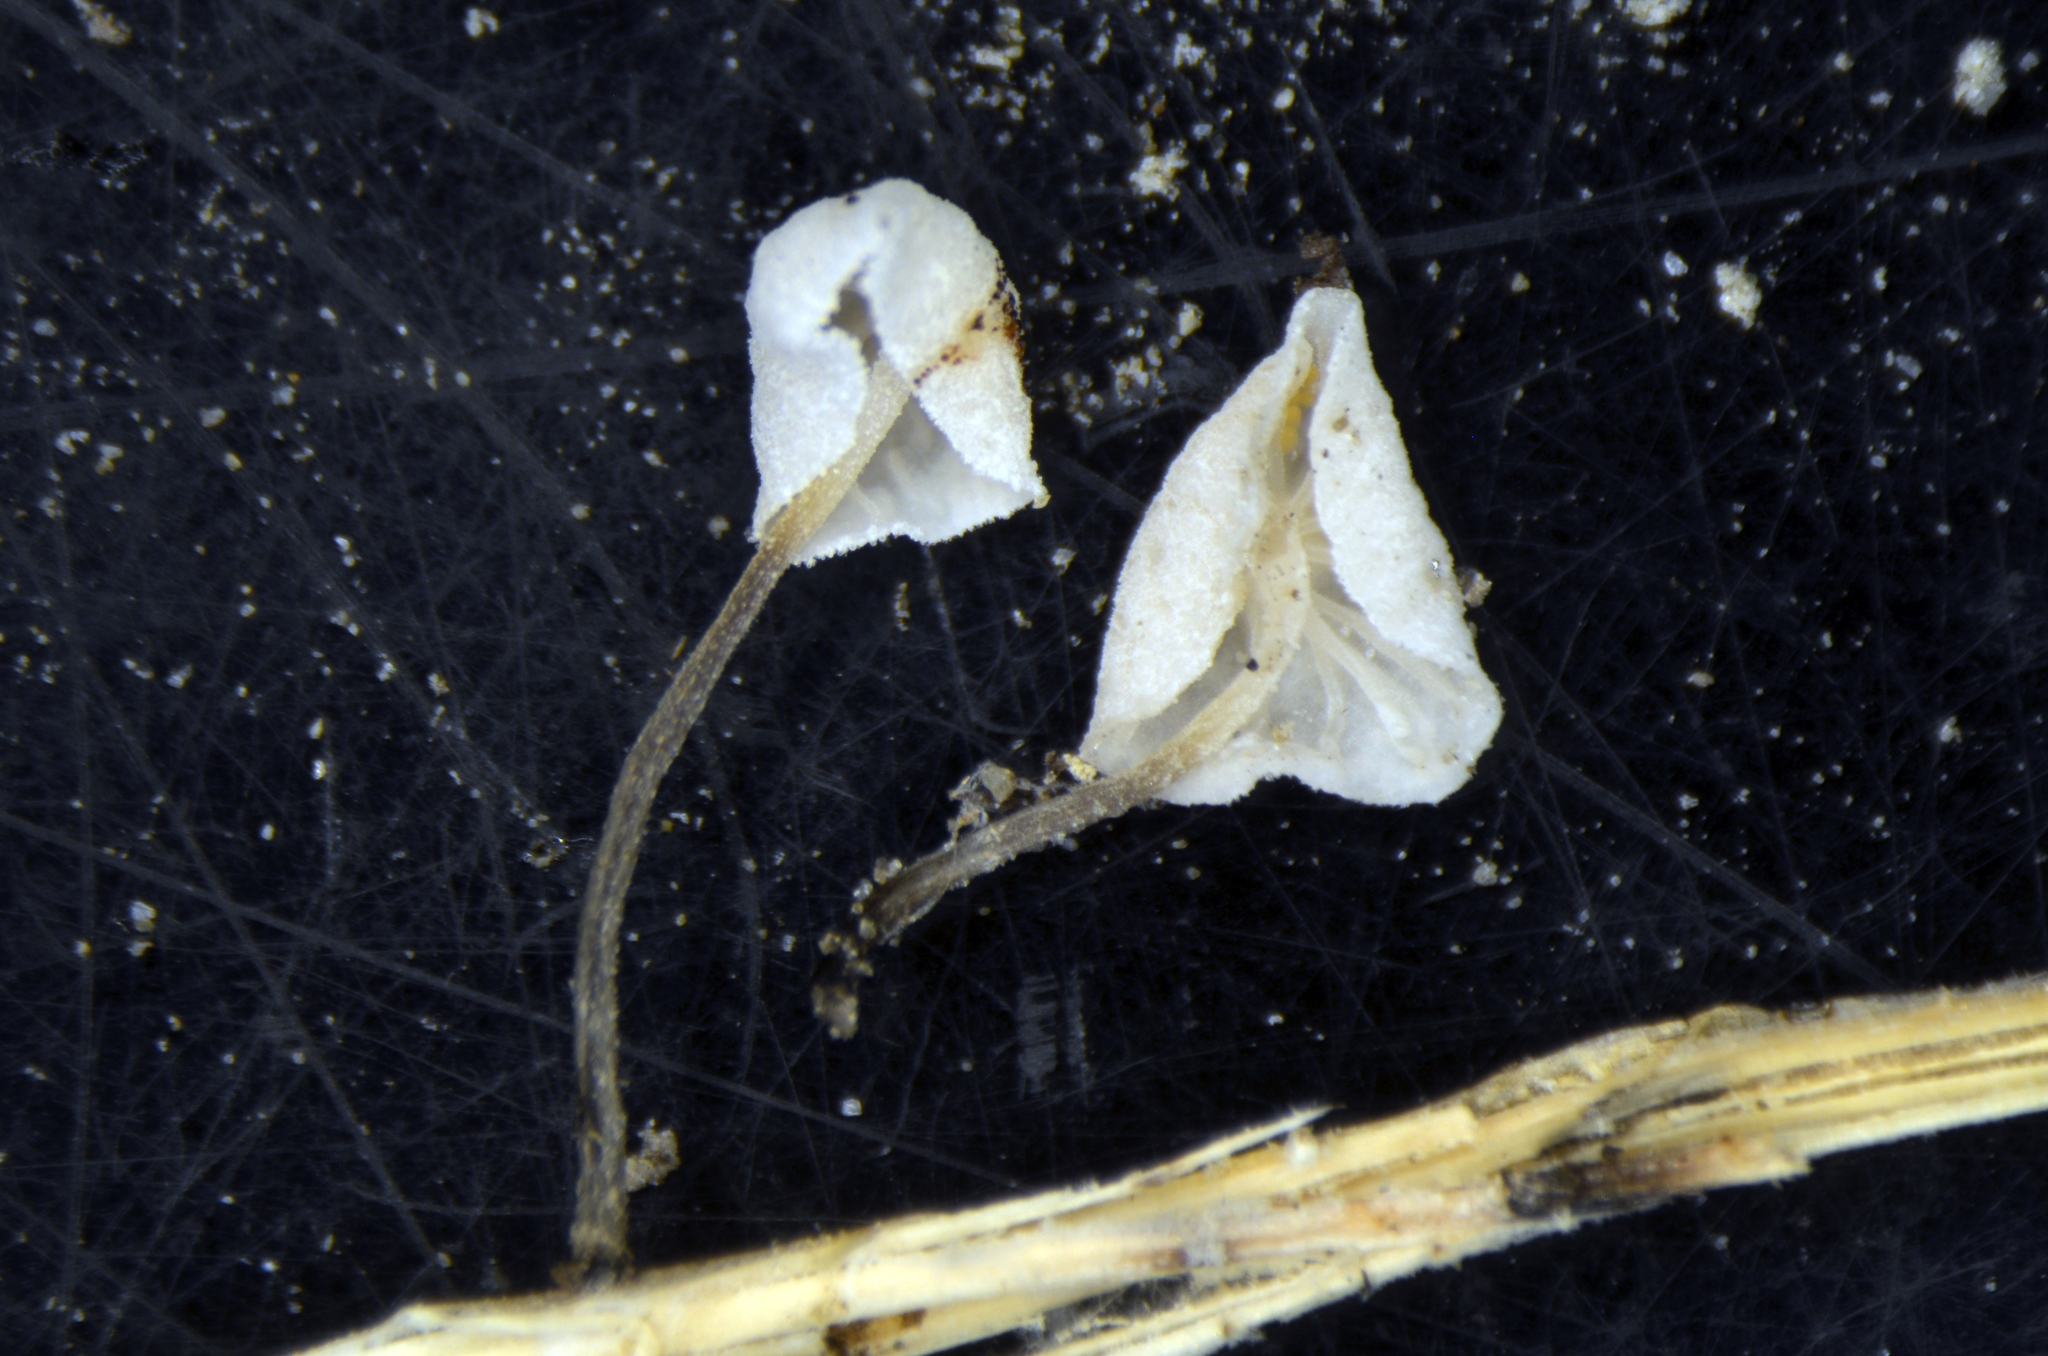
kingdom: Fungi
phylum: Basidiomycota
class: Agaricomycetes
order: Agaricales
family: Marasmiaceae
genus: Campanella
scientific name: Campanella
